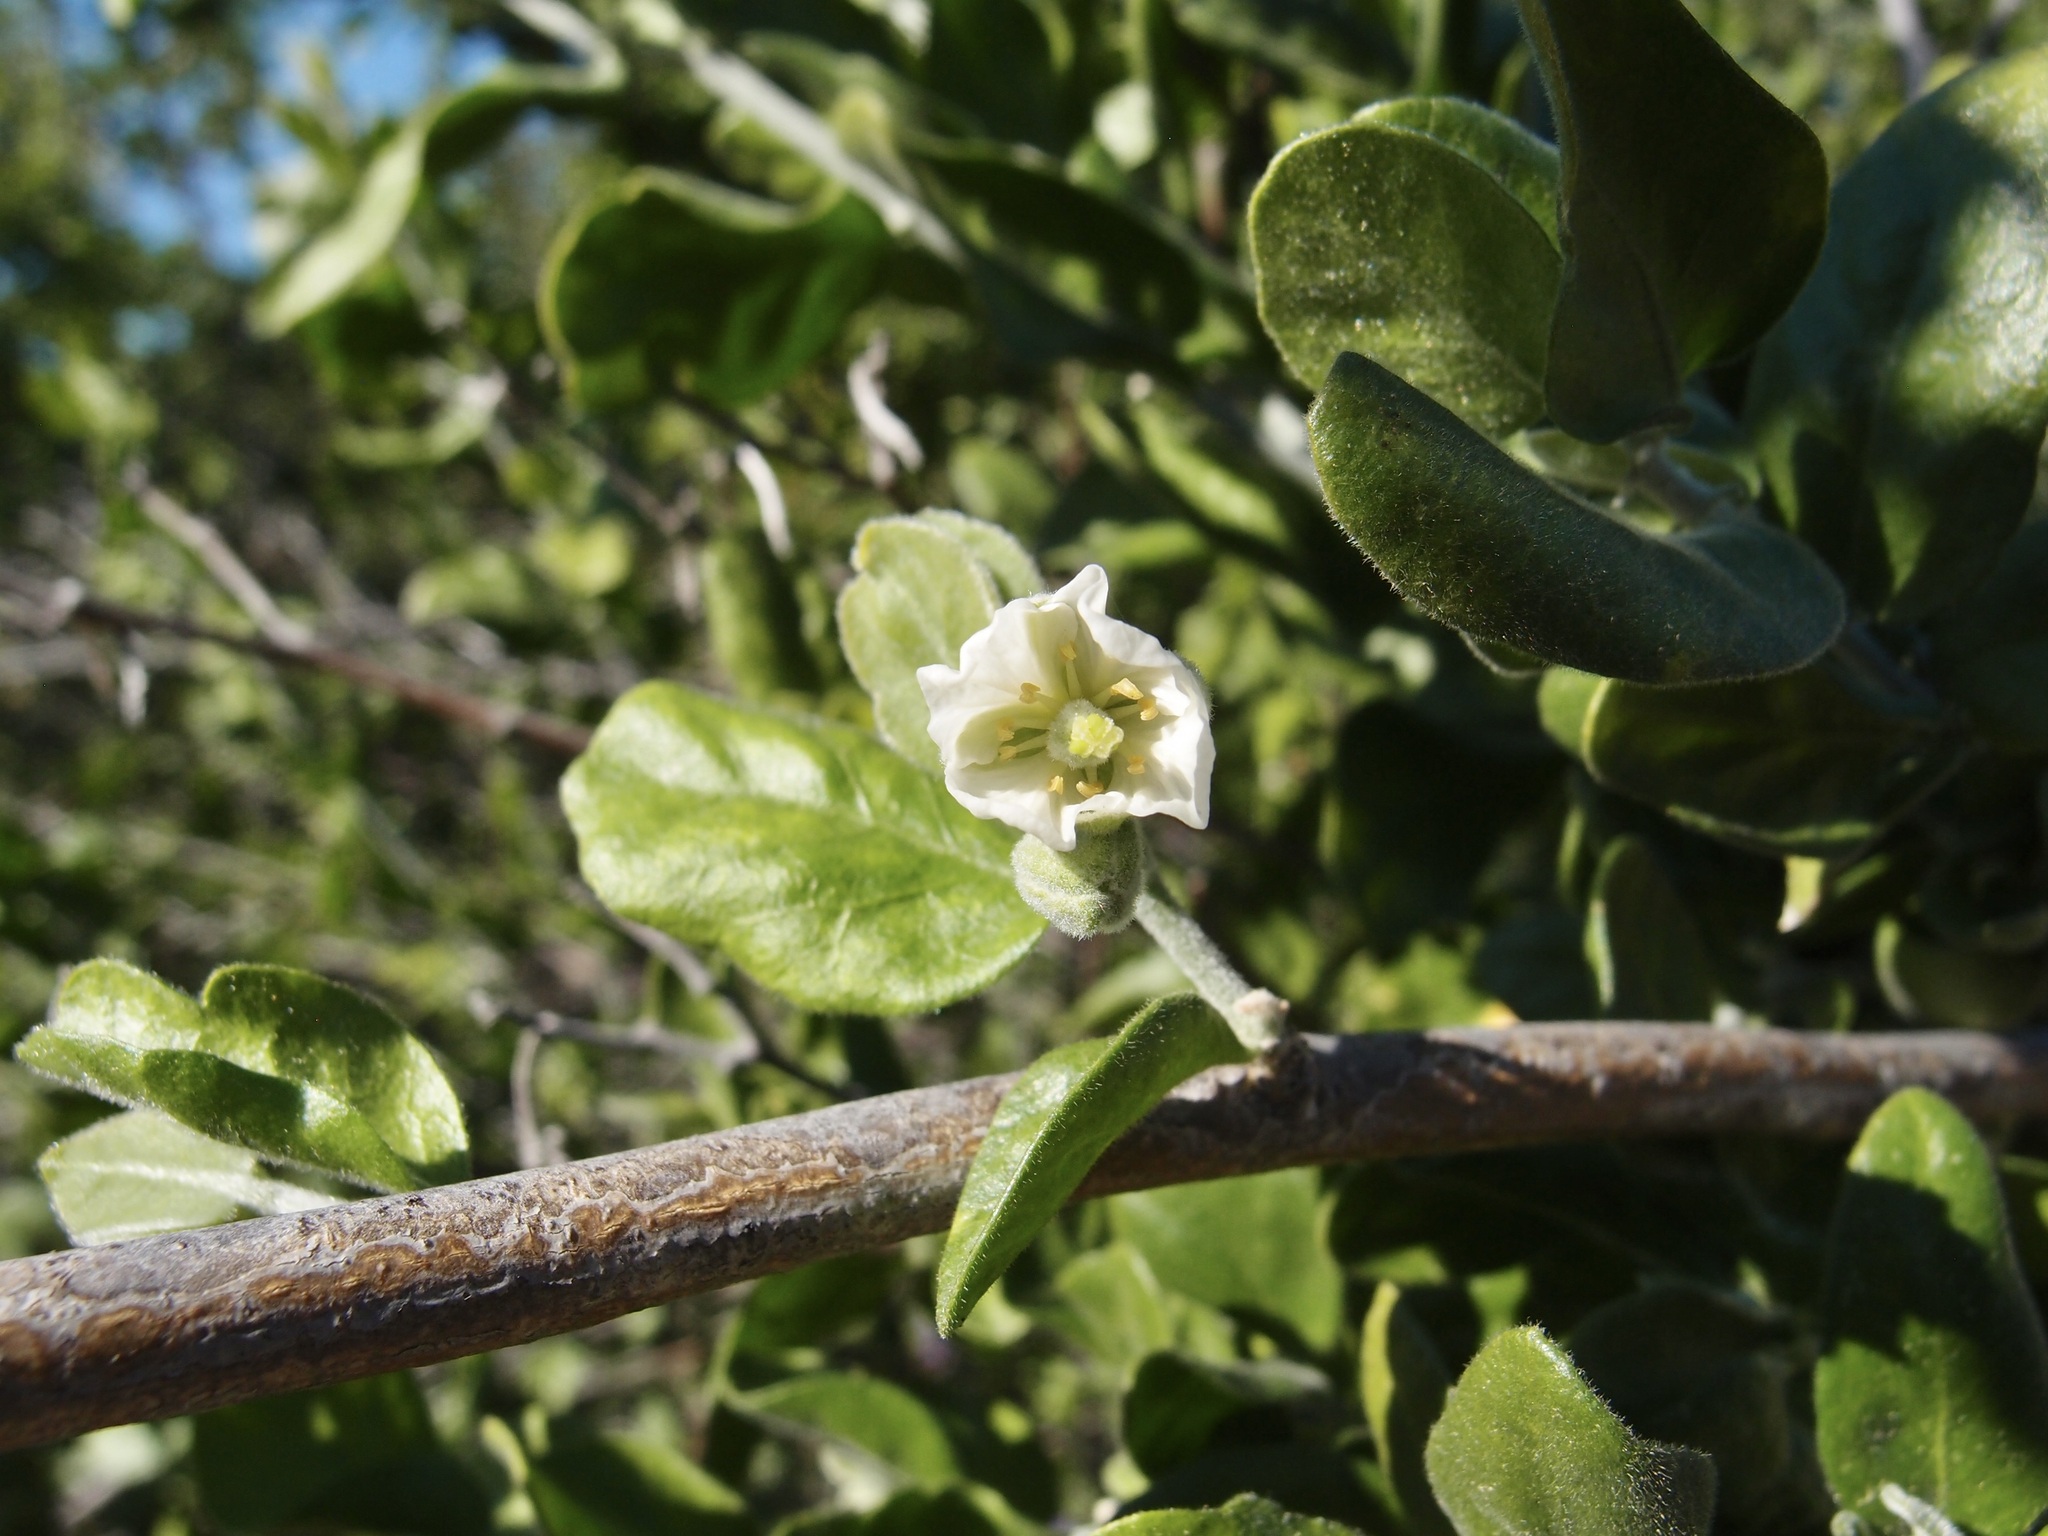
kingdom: Plantae
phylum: Tracheophyta
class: Magnoliopsida
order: Zygophyllales
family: Zygophyllaceae
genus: Viscainoa
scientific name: Viscainoa geniculata
